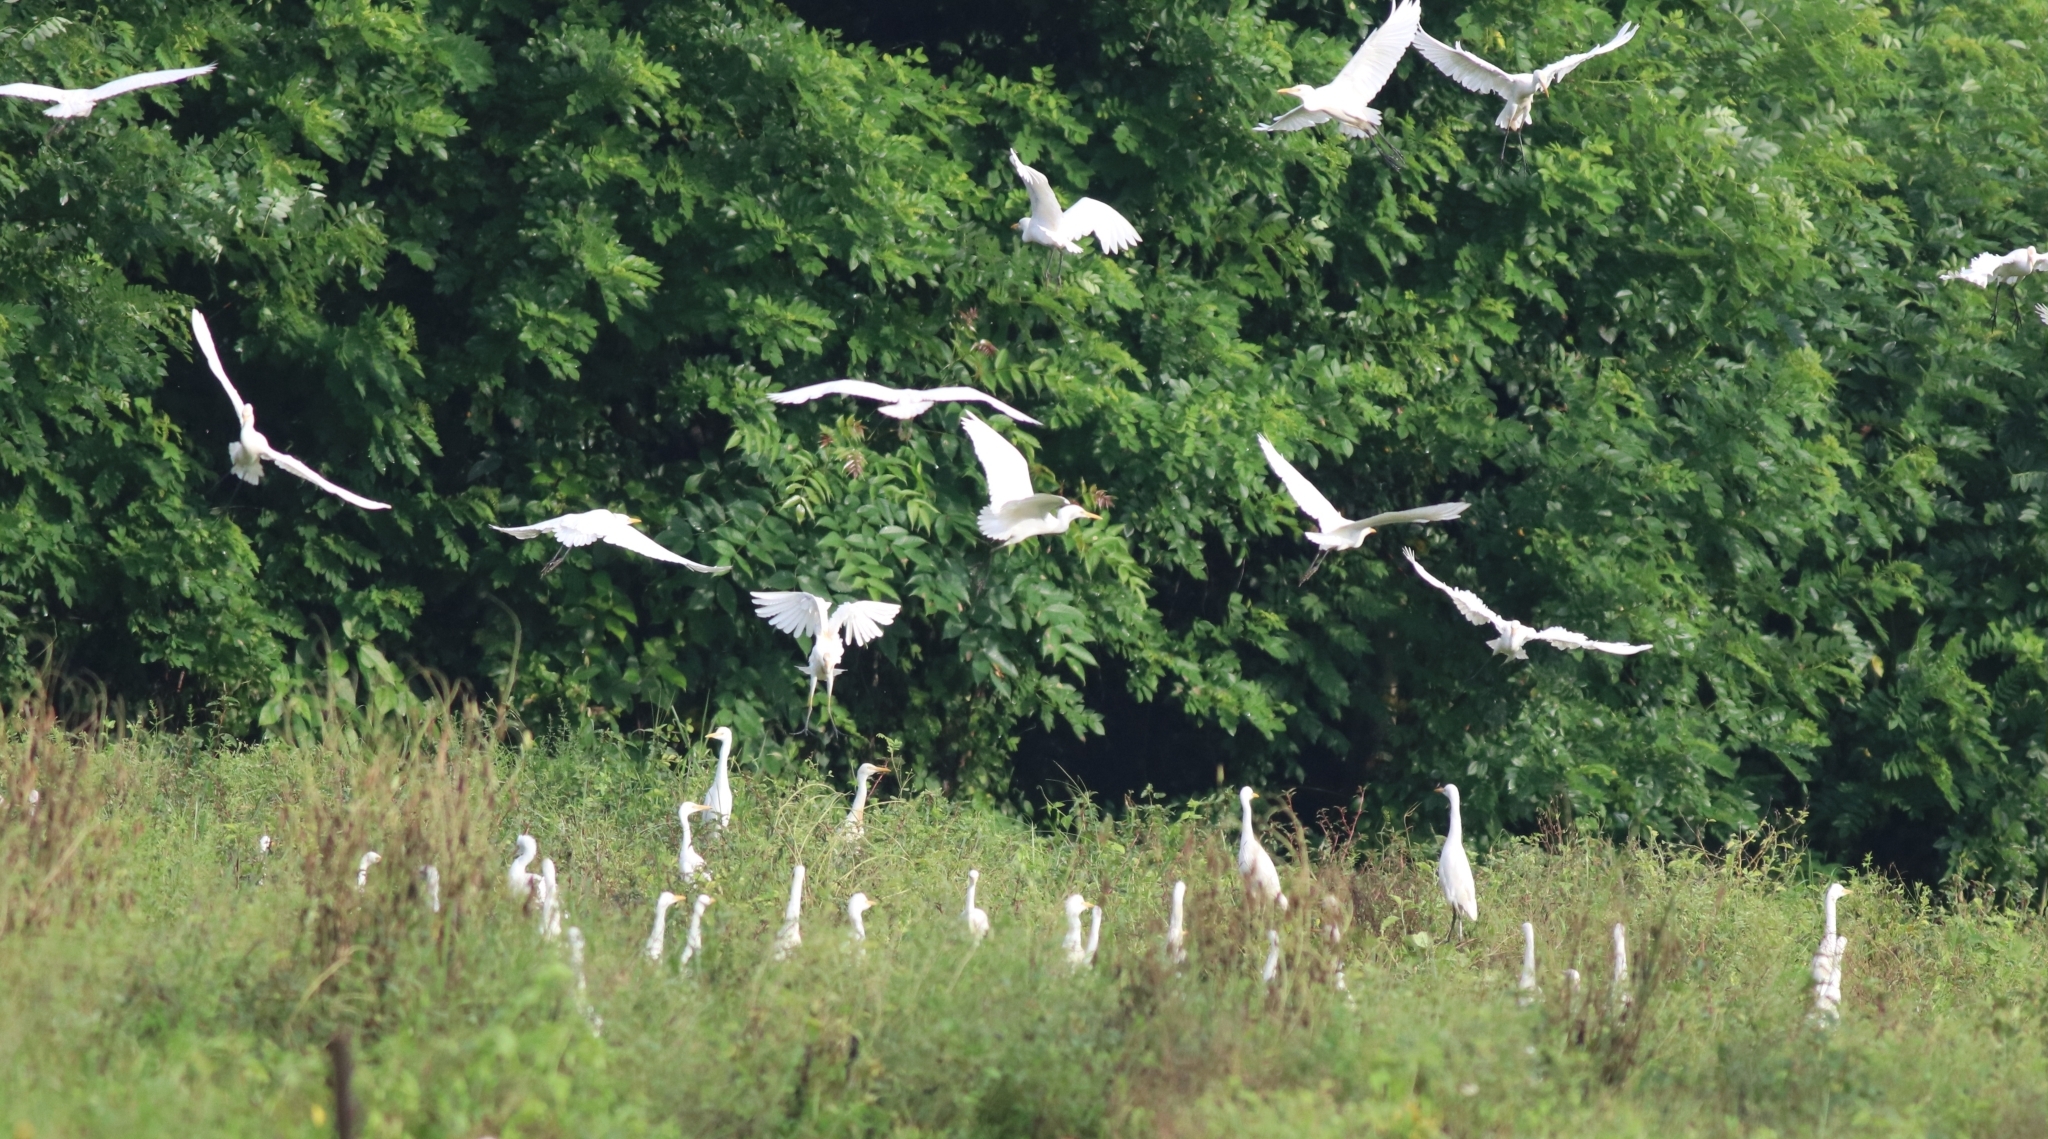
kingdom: Animalia
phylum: Chordata
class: Aves
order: Pelecaniformes
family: Ardeidae
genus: Bubulcus
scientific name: Bubulcus coromandus
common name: Eastern cattle egret
